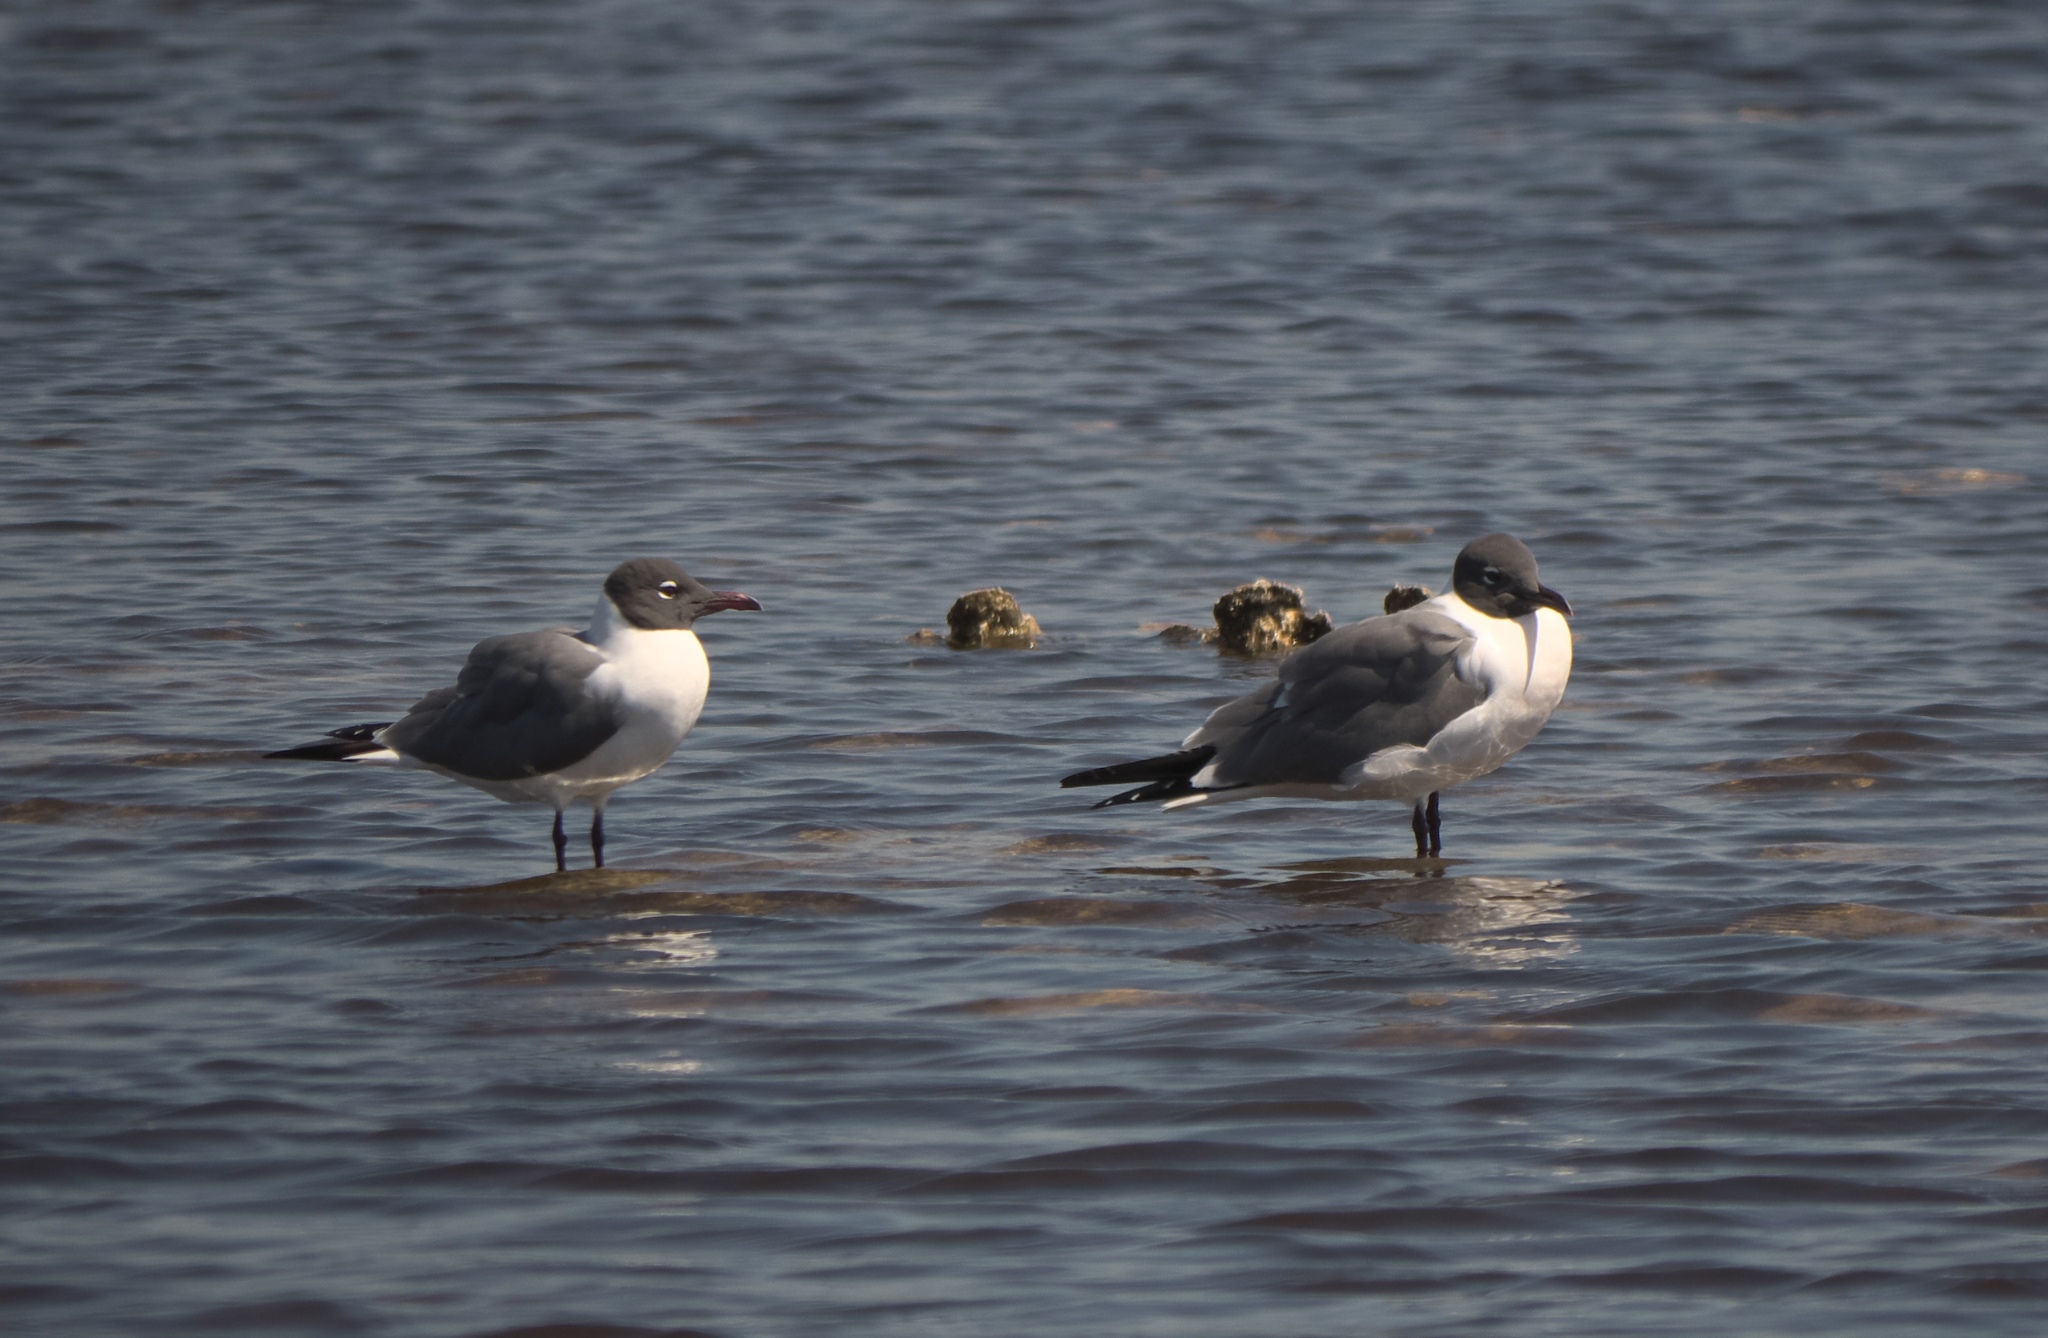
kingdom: Animalia
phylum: Chordata
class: Aves
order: Charadriiformes
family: Laridae
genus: Leucophaeus
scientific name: Leucophaeus atricilla
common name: Laughing gull
